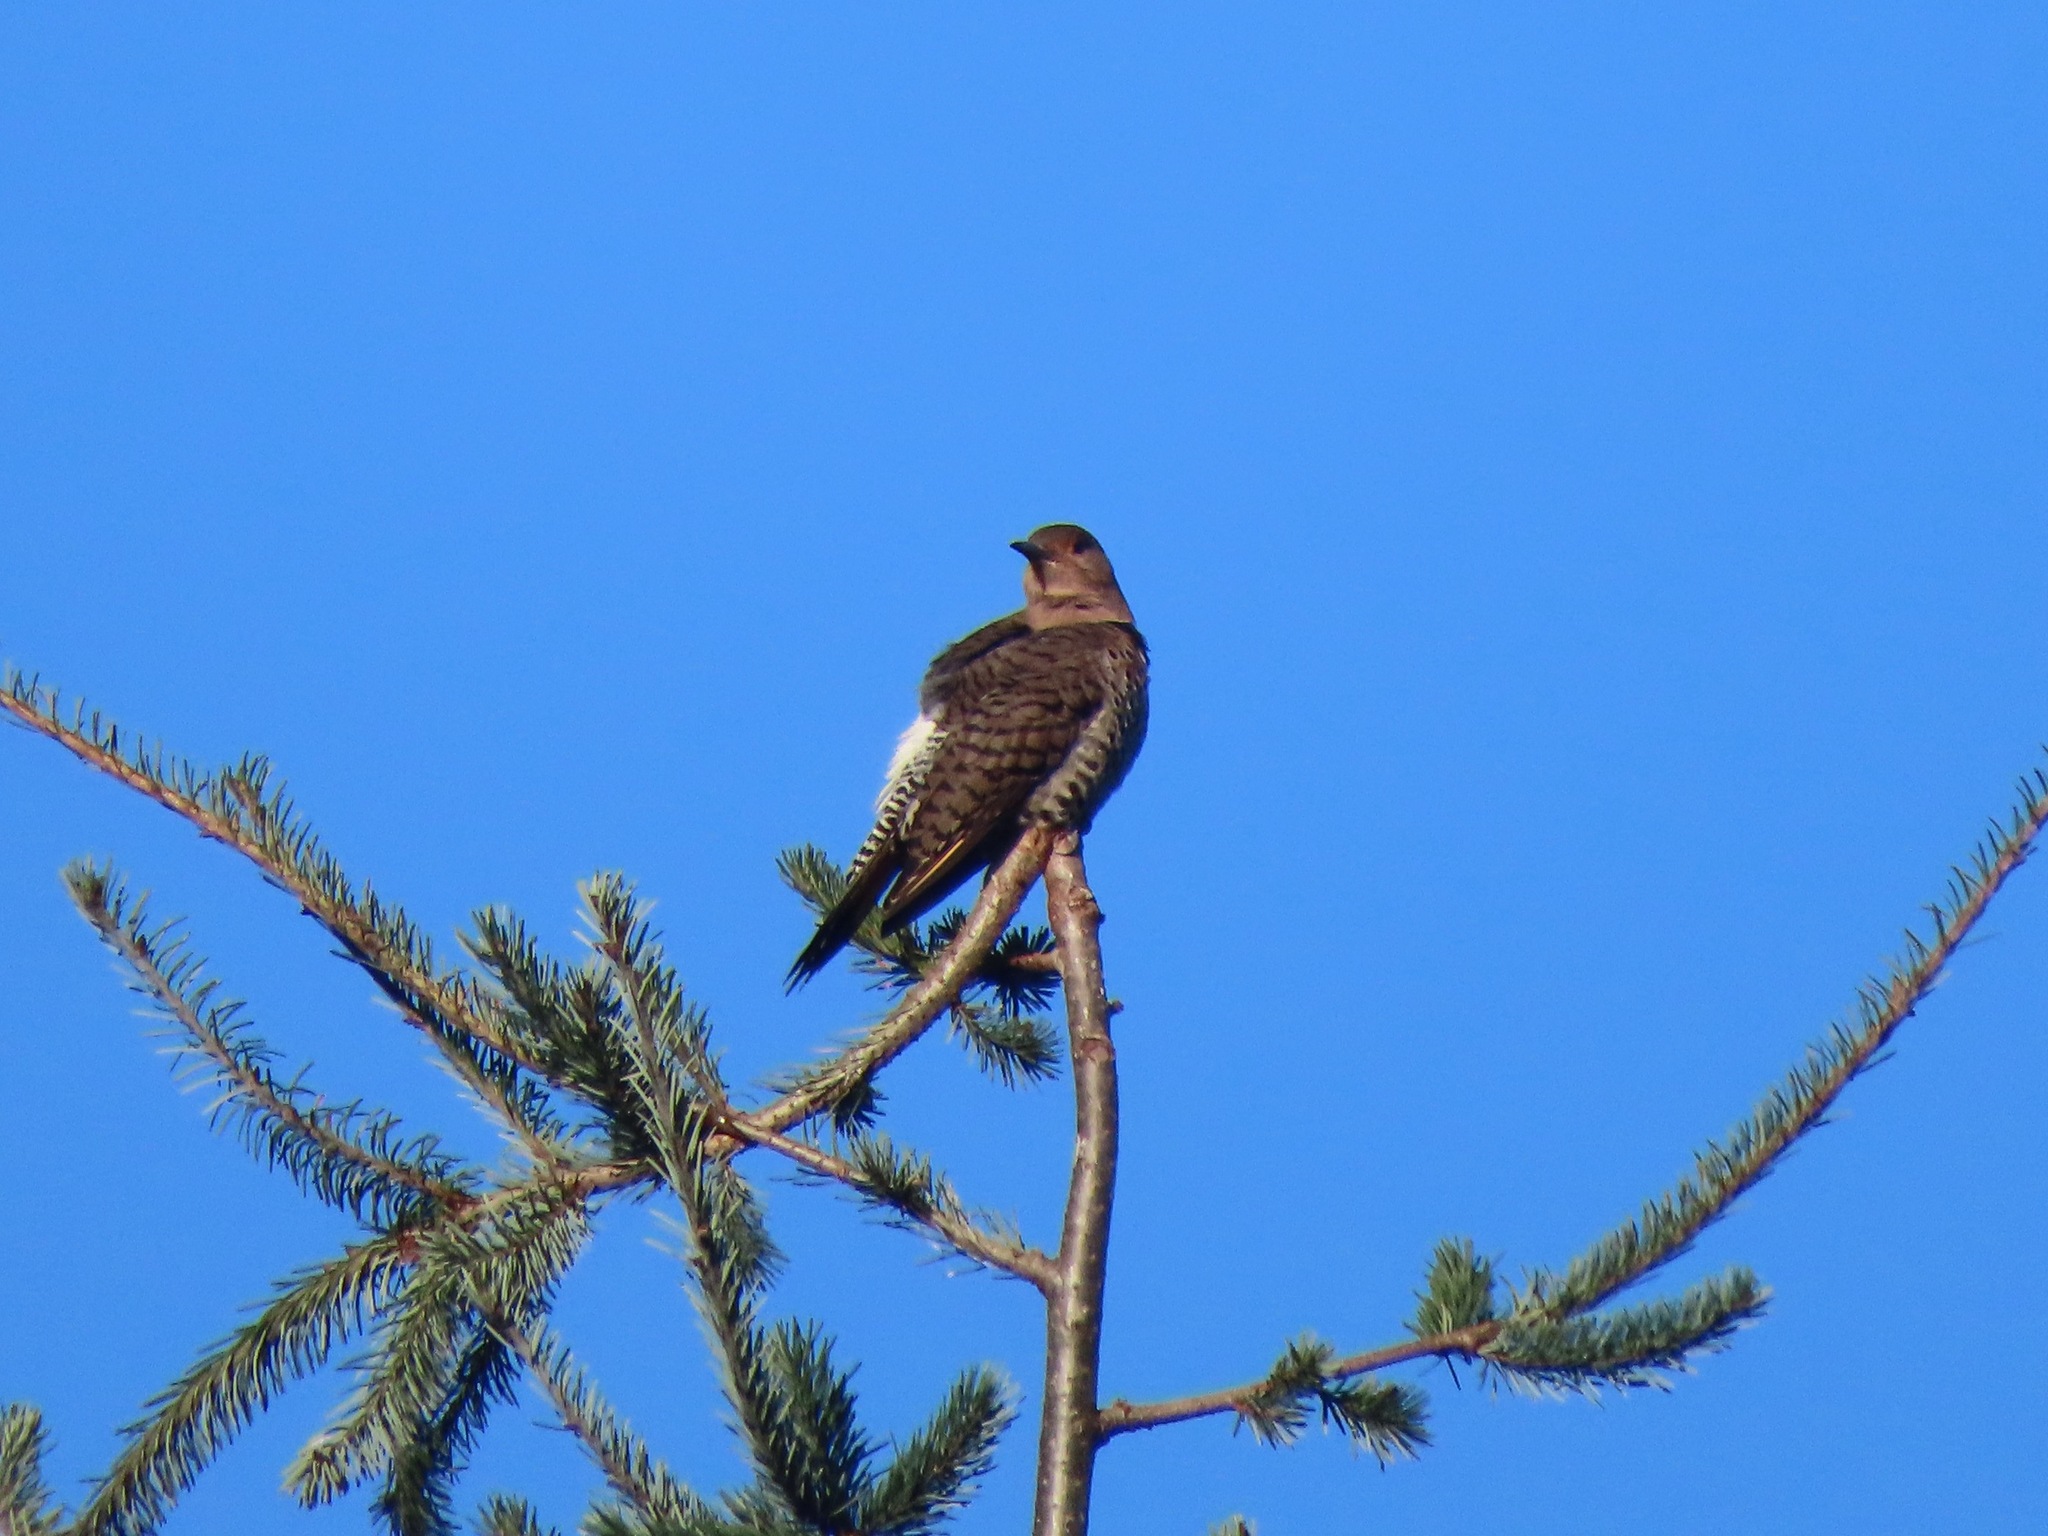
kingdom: Animalia
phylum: Chordata
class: Aves
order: Piciformes
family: Picidae
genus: Colaptes
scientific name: Colaptes auratus
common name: Northern flicker
